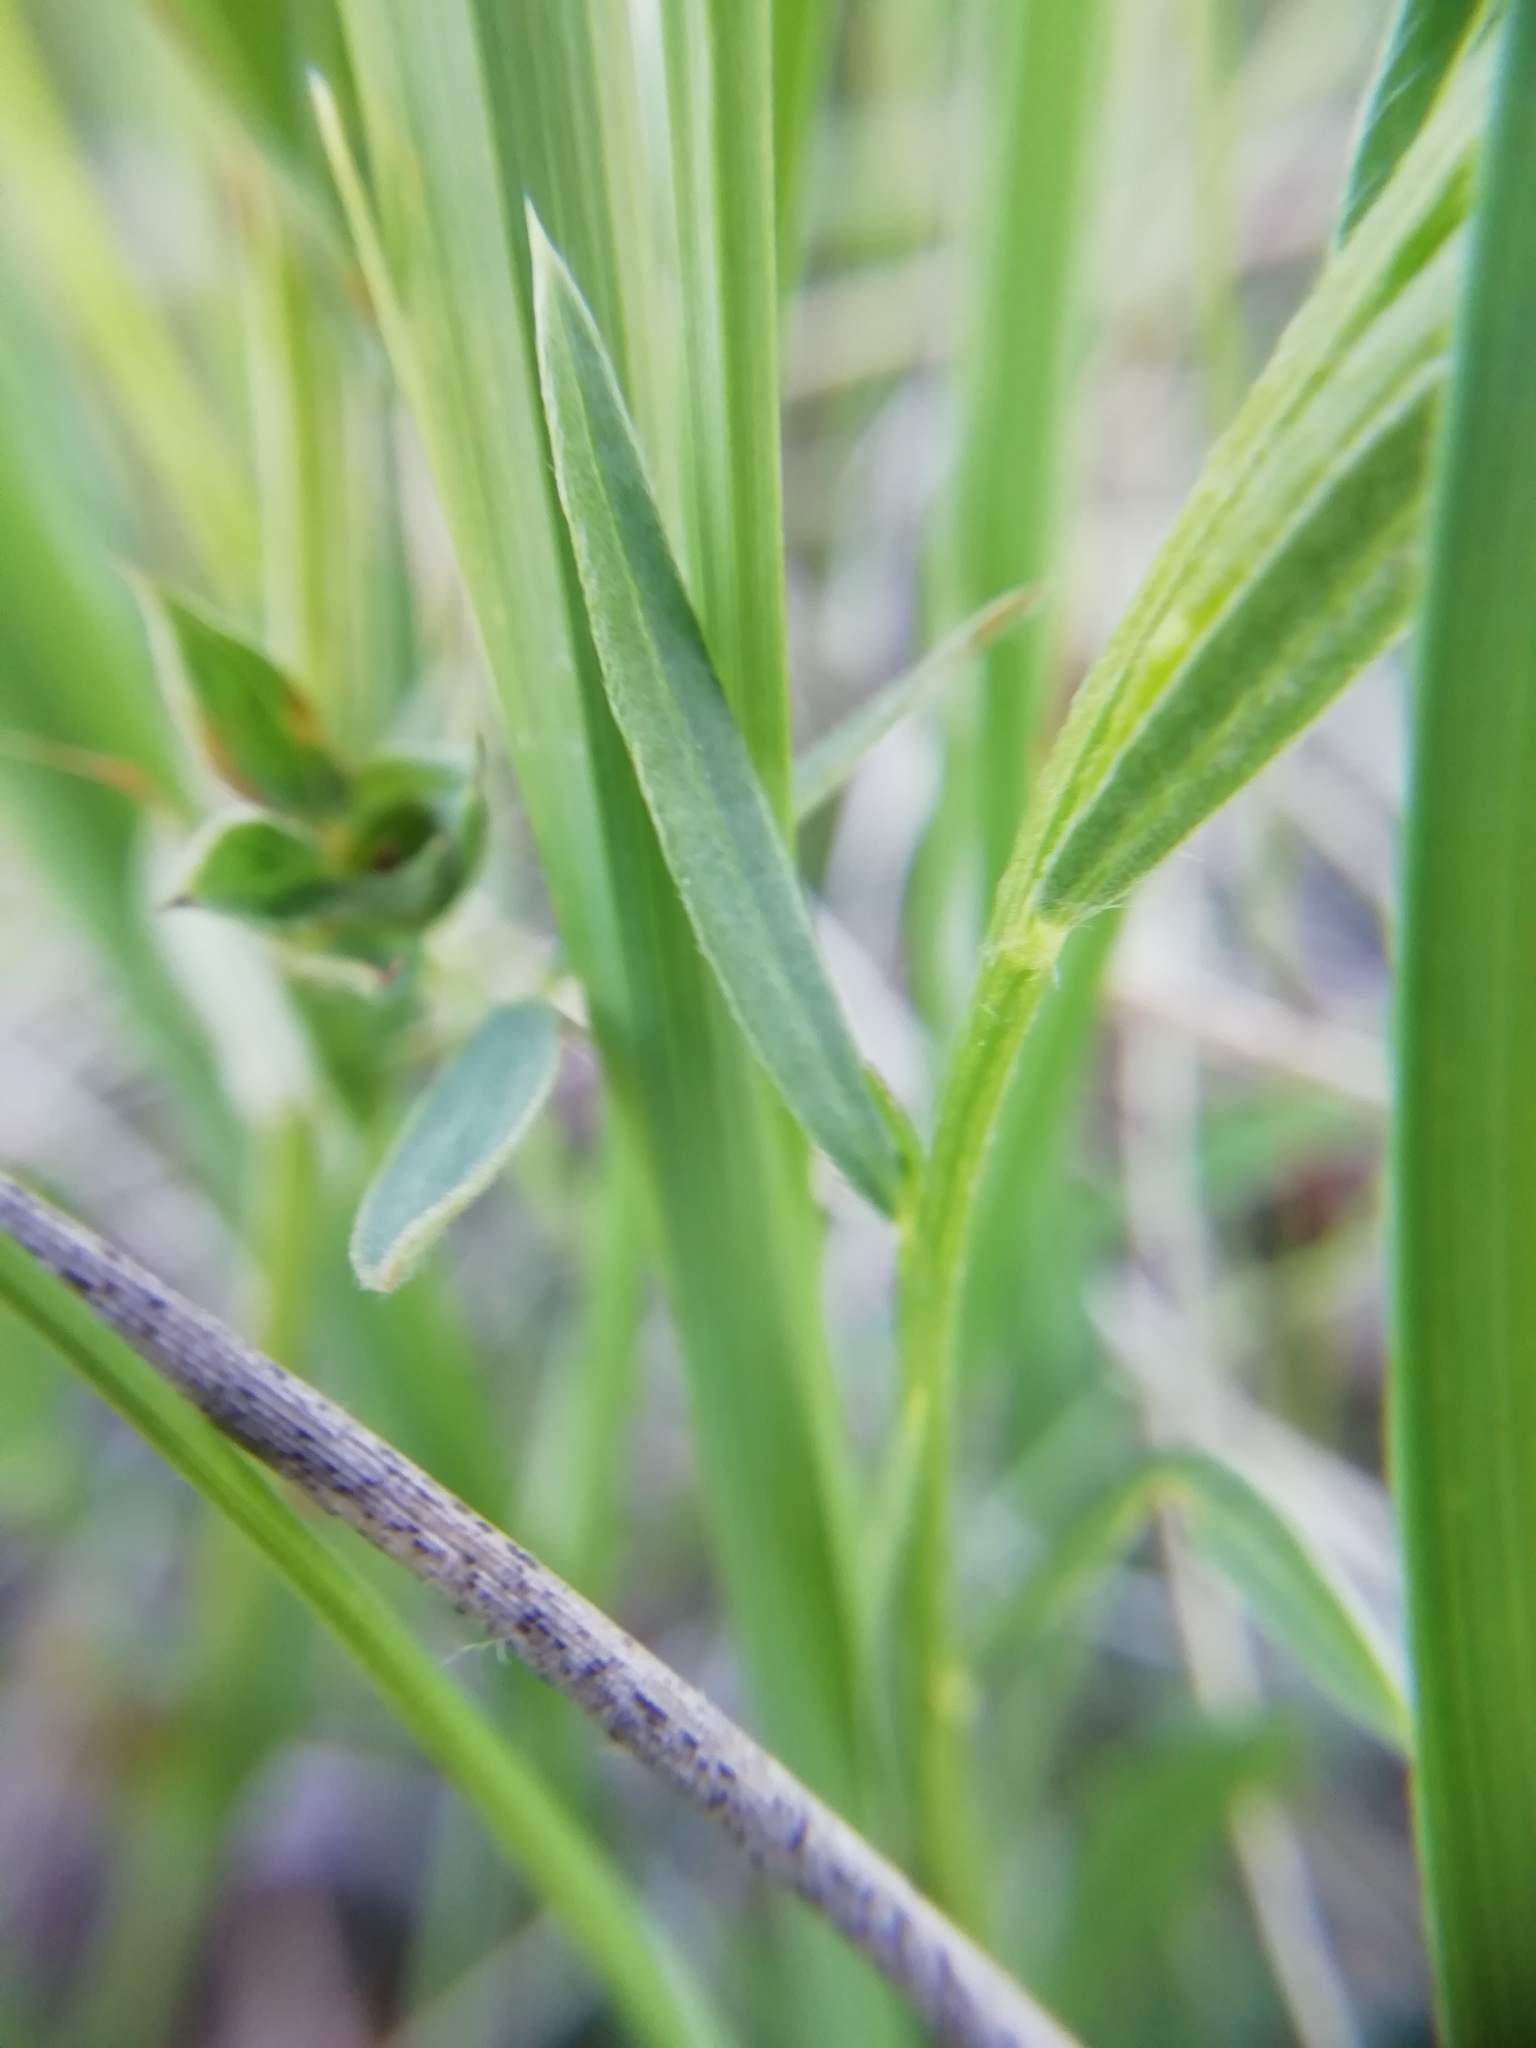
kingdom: Plantae
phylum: Tracheophyta
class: Magnoliopsida
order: Fabales
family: Fabaceae
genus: Lathyrus
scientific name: Lathyrus pratensis
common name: Meadow vetchling
